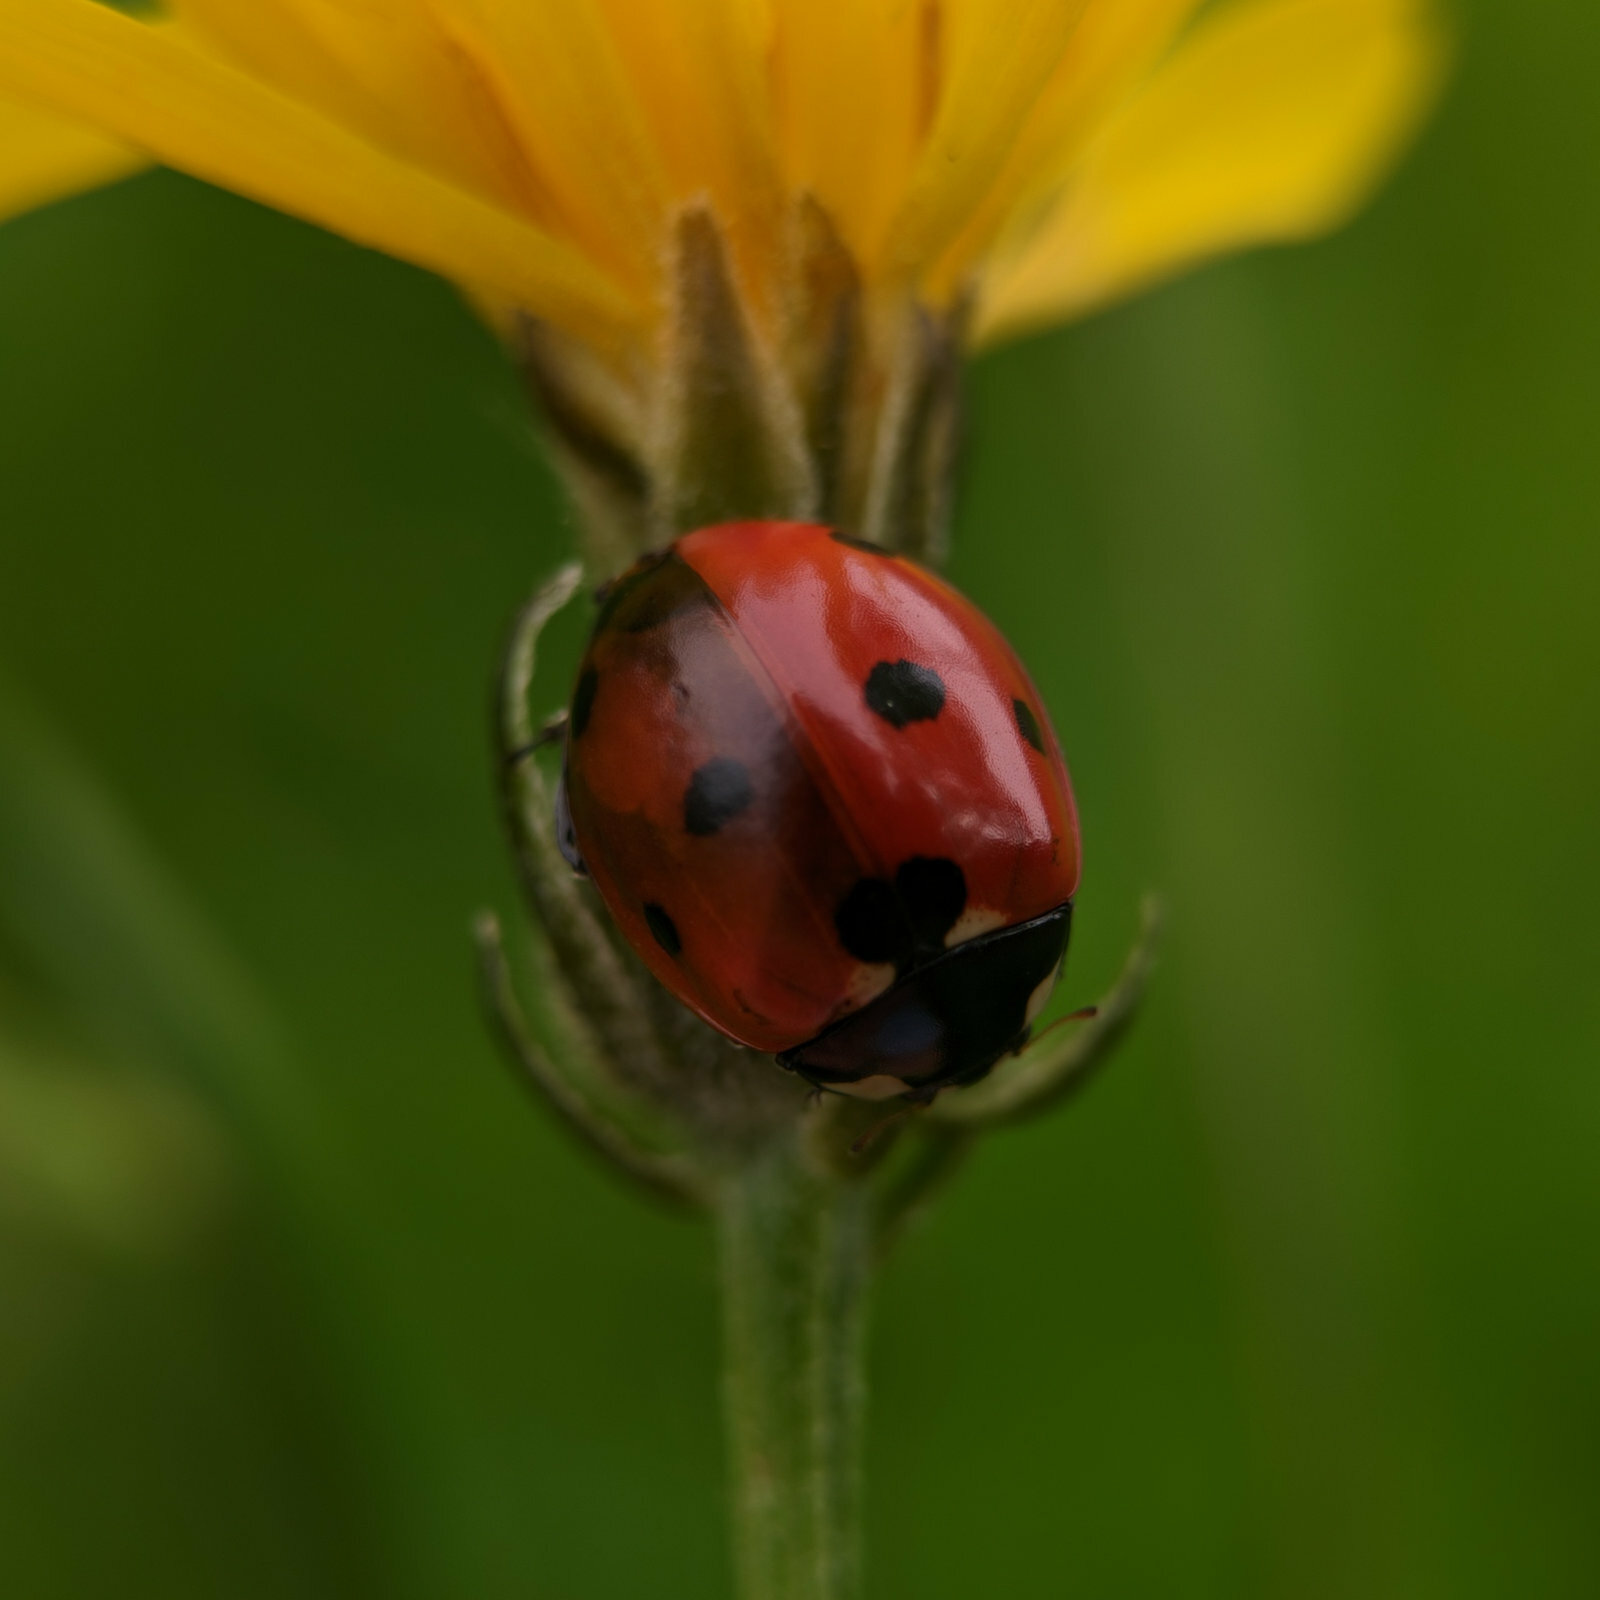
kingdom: Animalia
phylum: Arthropoda
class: Insecta
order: Coleoptera
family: Coccinellidae
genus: Coccinella
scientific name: Coccinella septempunctata
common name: Sevenspotted lady beetle
